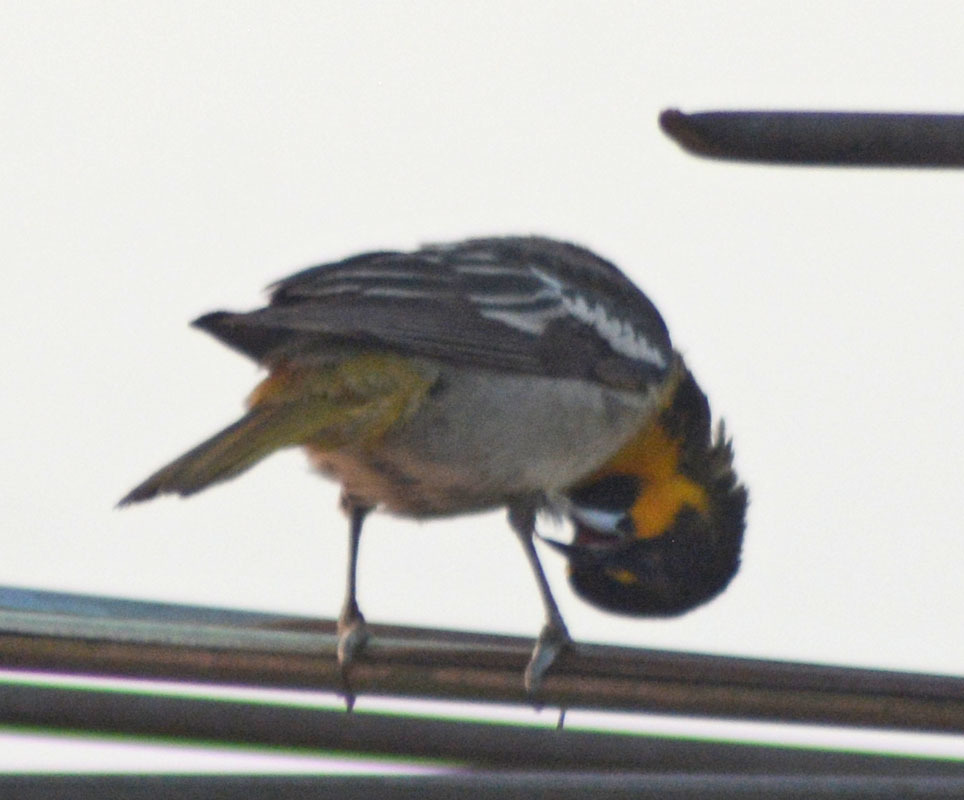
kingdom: Animalia
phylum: Chordata
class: Aves
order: Passeriformes
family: Icteridae
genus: Icterus
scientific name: Icterus abeillei
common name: Black-backed oriole
